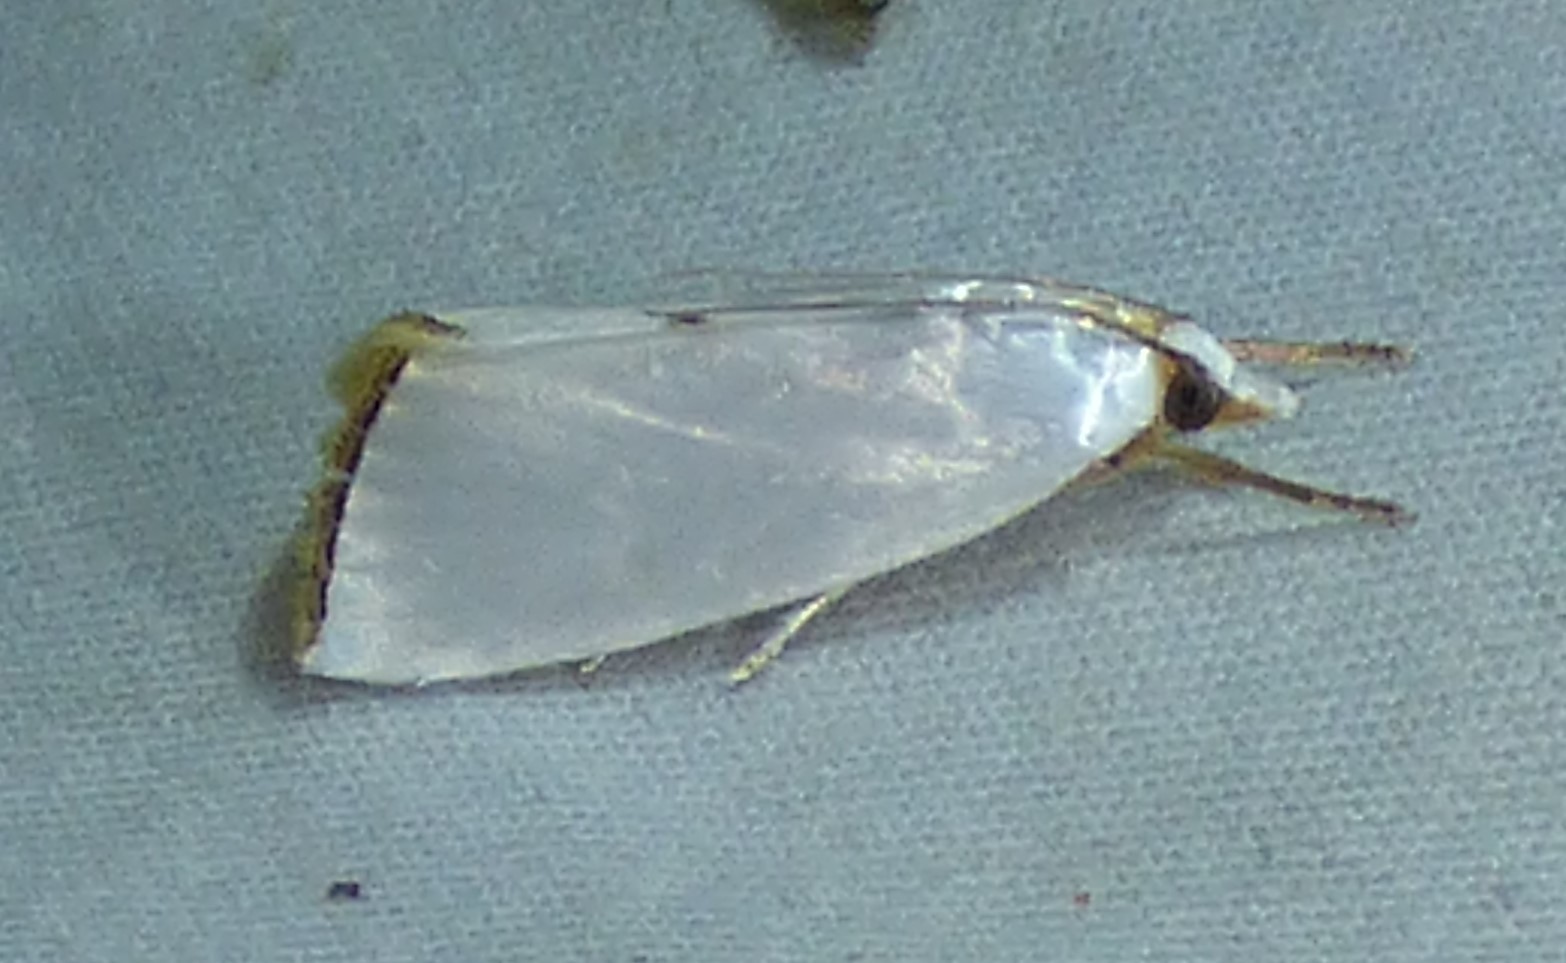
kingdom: Animalia
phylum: Arthropoda
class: Insecta
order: Lepidoptera
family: Crambidae
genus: Argyria
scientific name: Argyria nivalis
